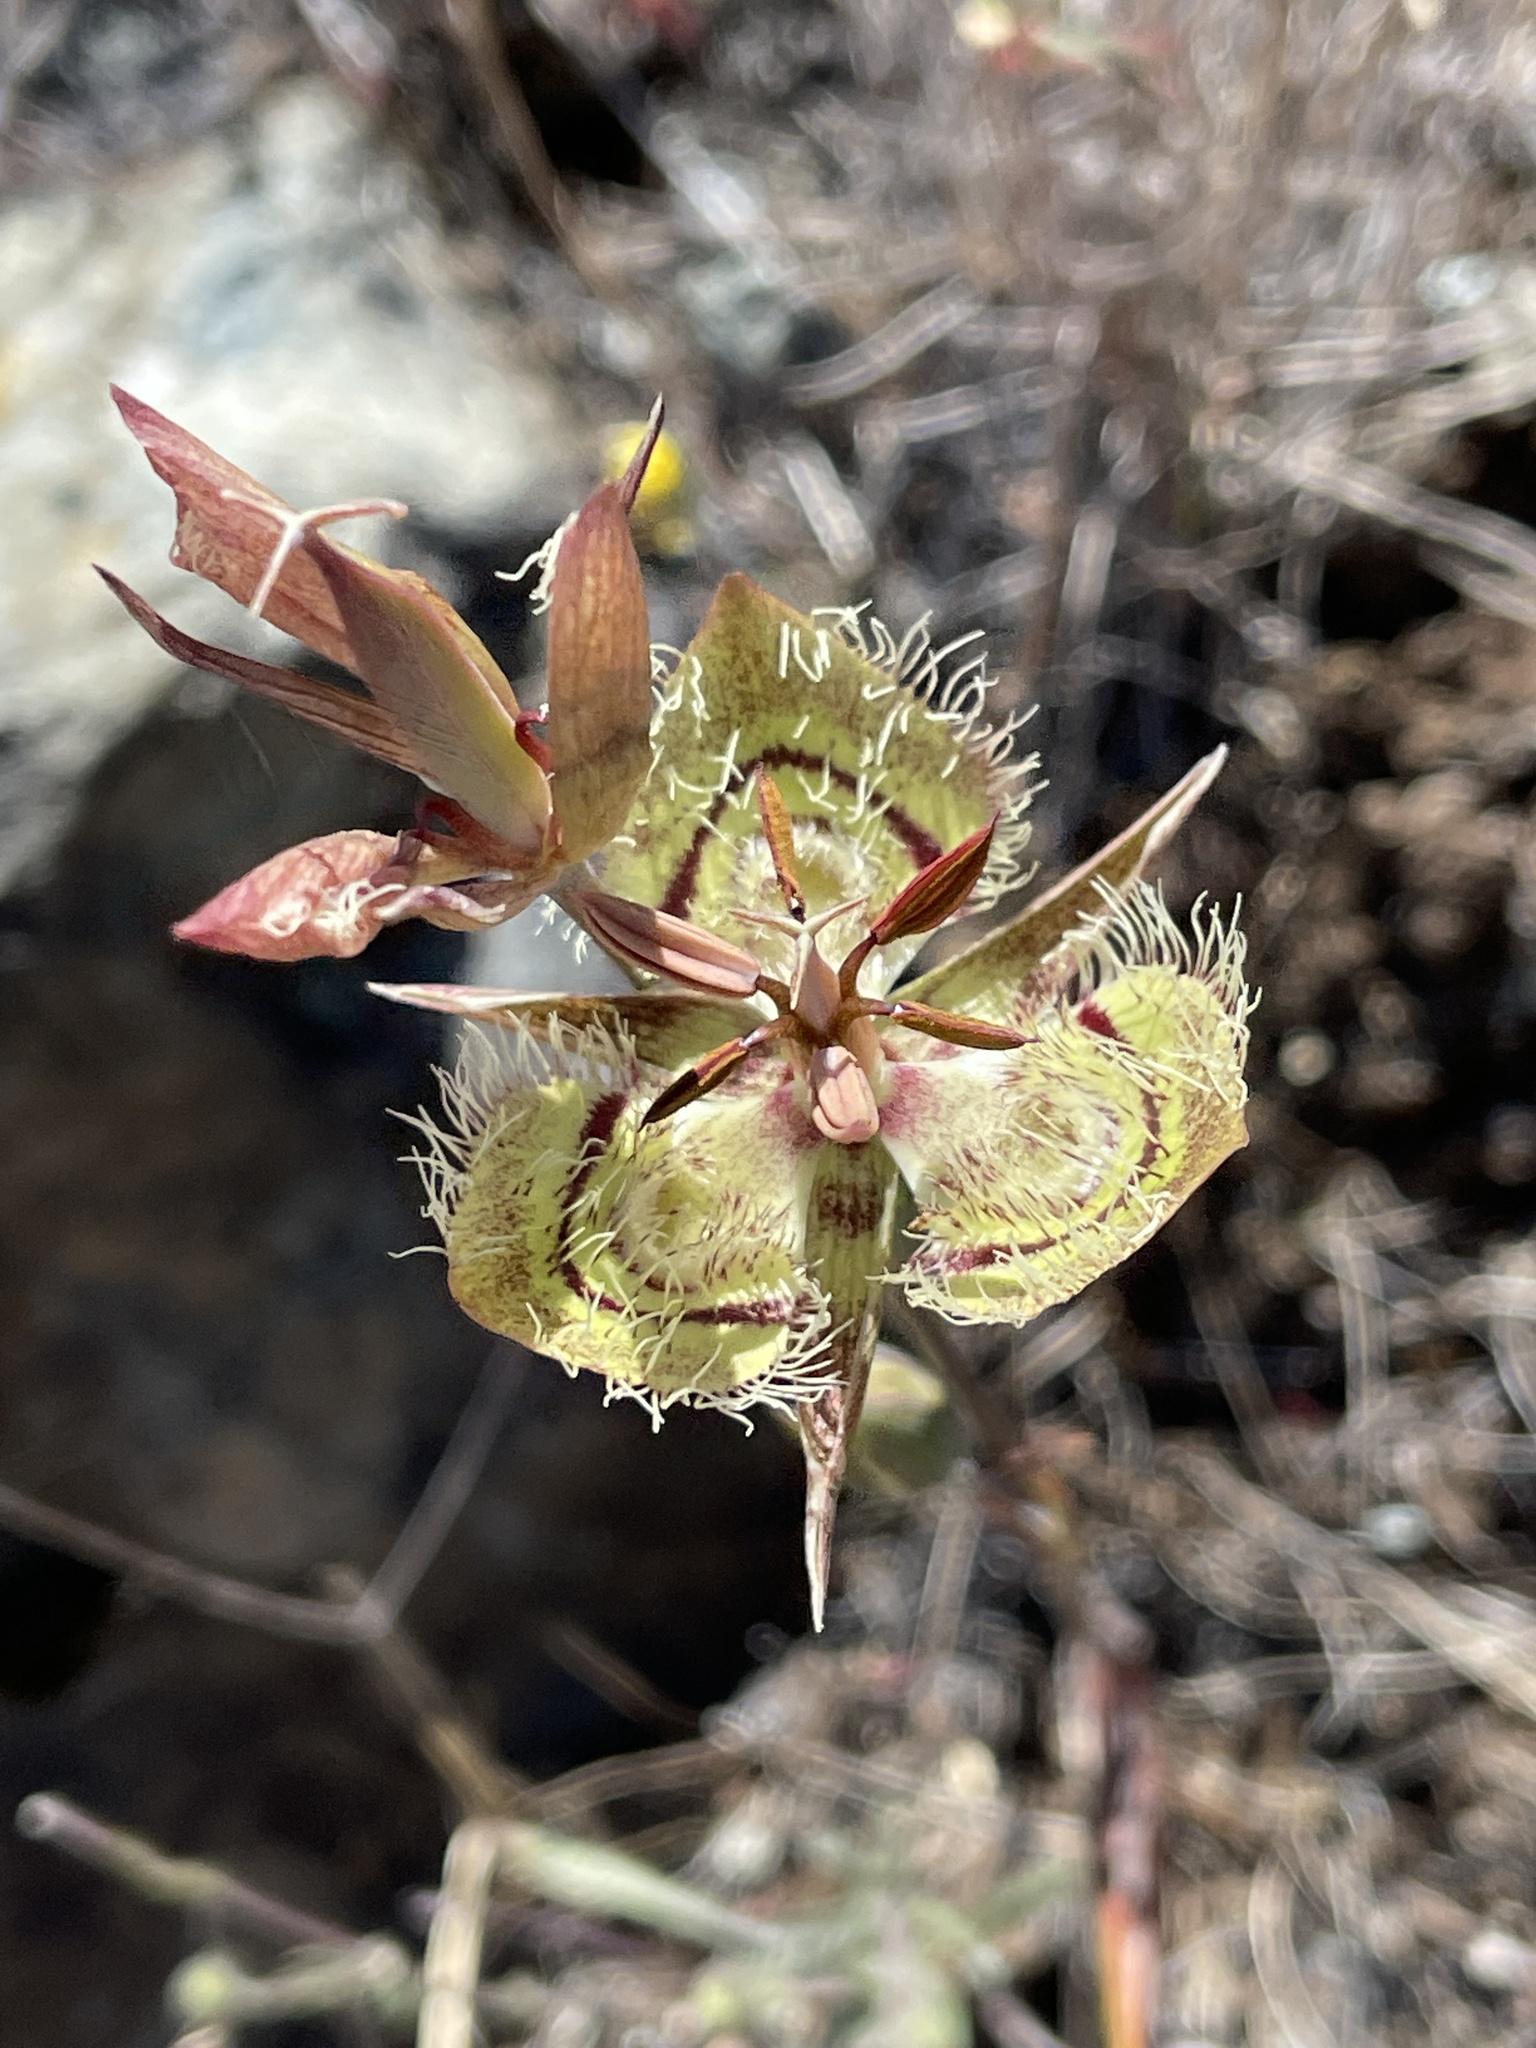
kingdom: Plantae
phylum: Tracheophyta
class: Liliopsida
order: Liliales
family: Liliaceae
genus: Calochortus
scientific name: Calochortus tiburonensis
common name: Tiburon mariposa-lily
